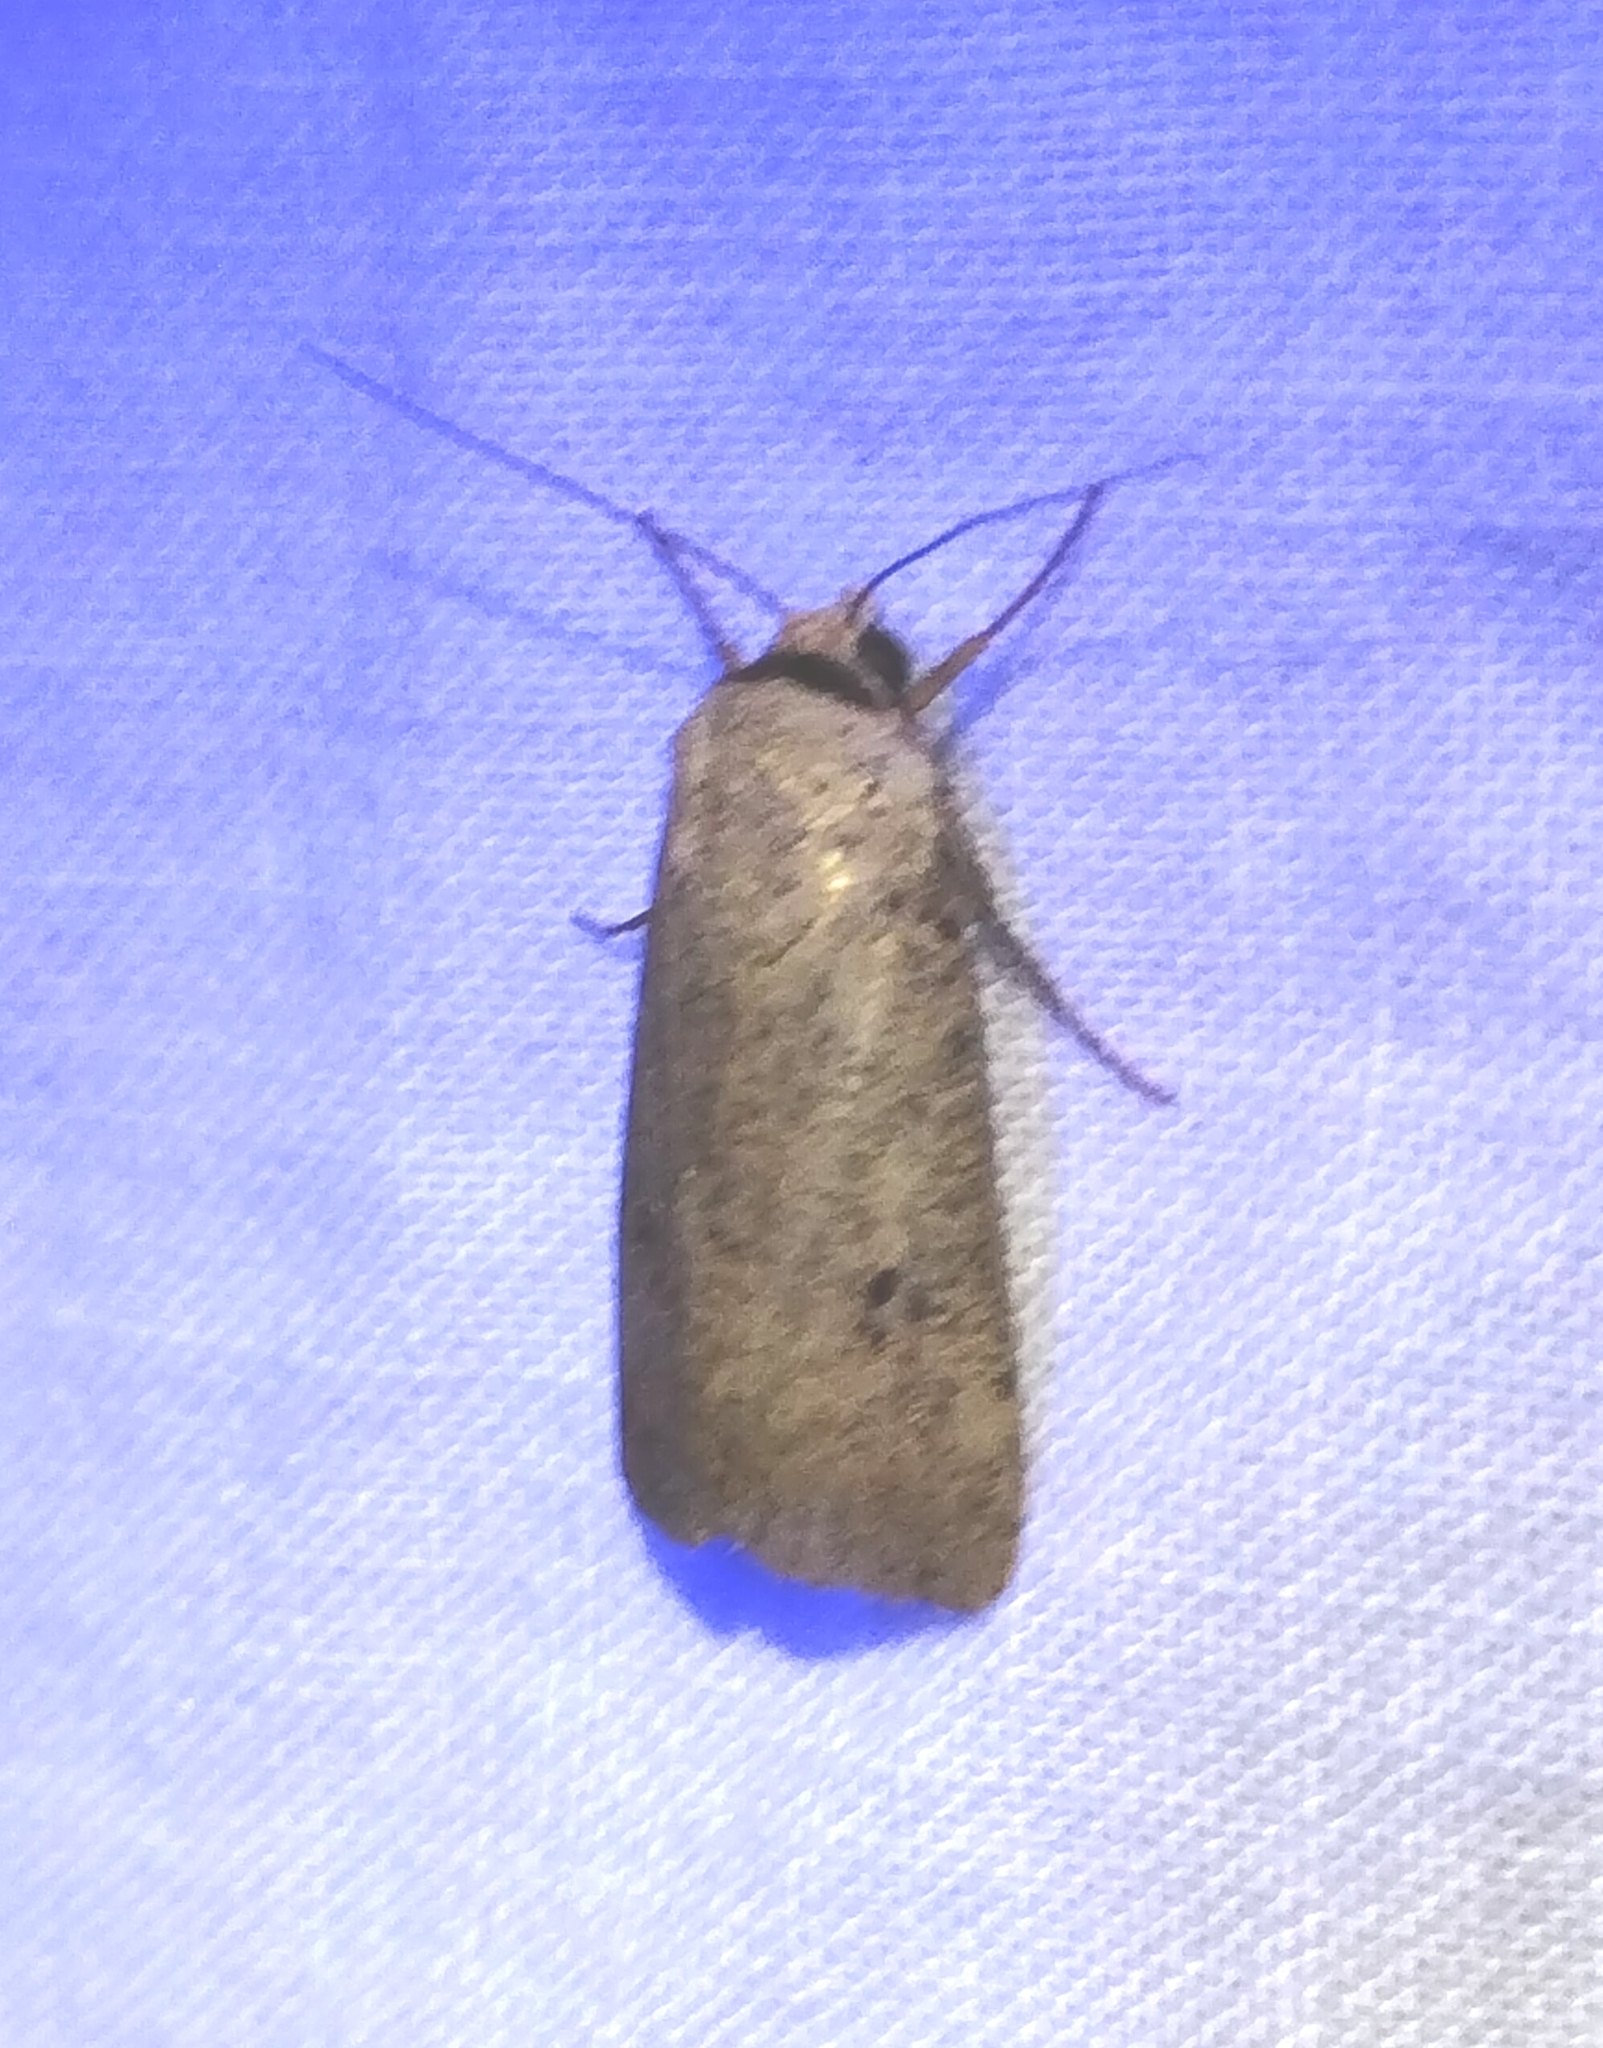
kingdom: Animalia
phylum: Arthropoda
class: Insecta
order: Lepidoptera
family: Noctuidae
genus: Anicla
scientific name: Anicla infecta
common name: Green cutworm
